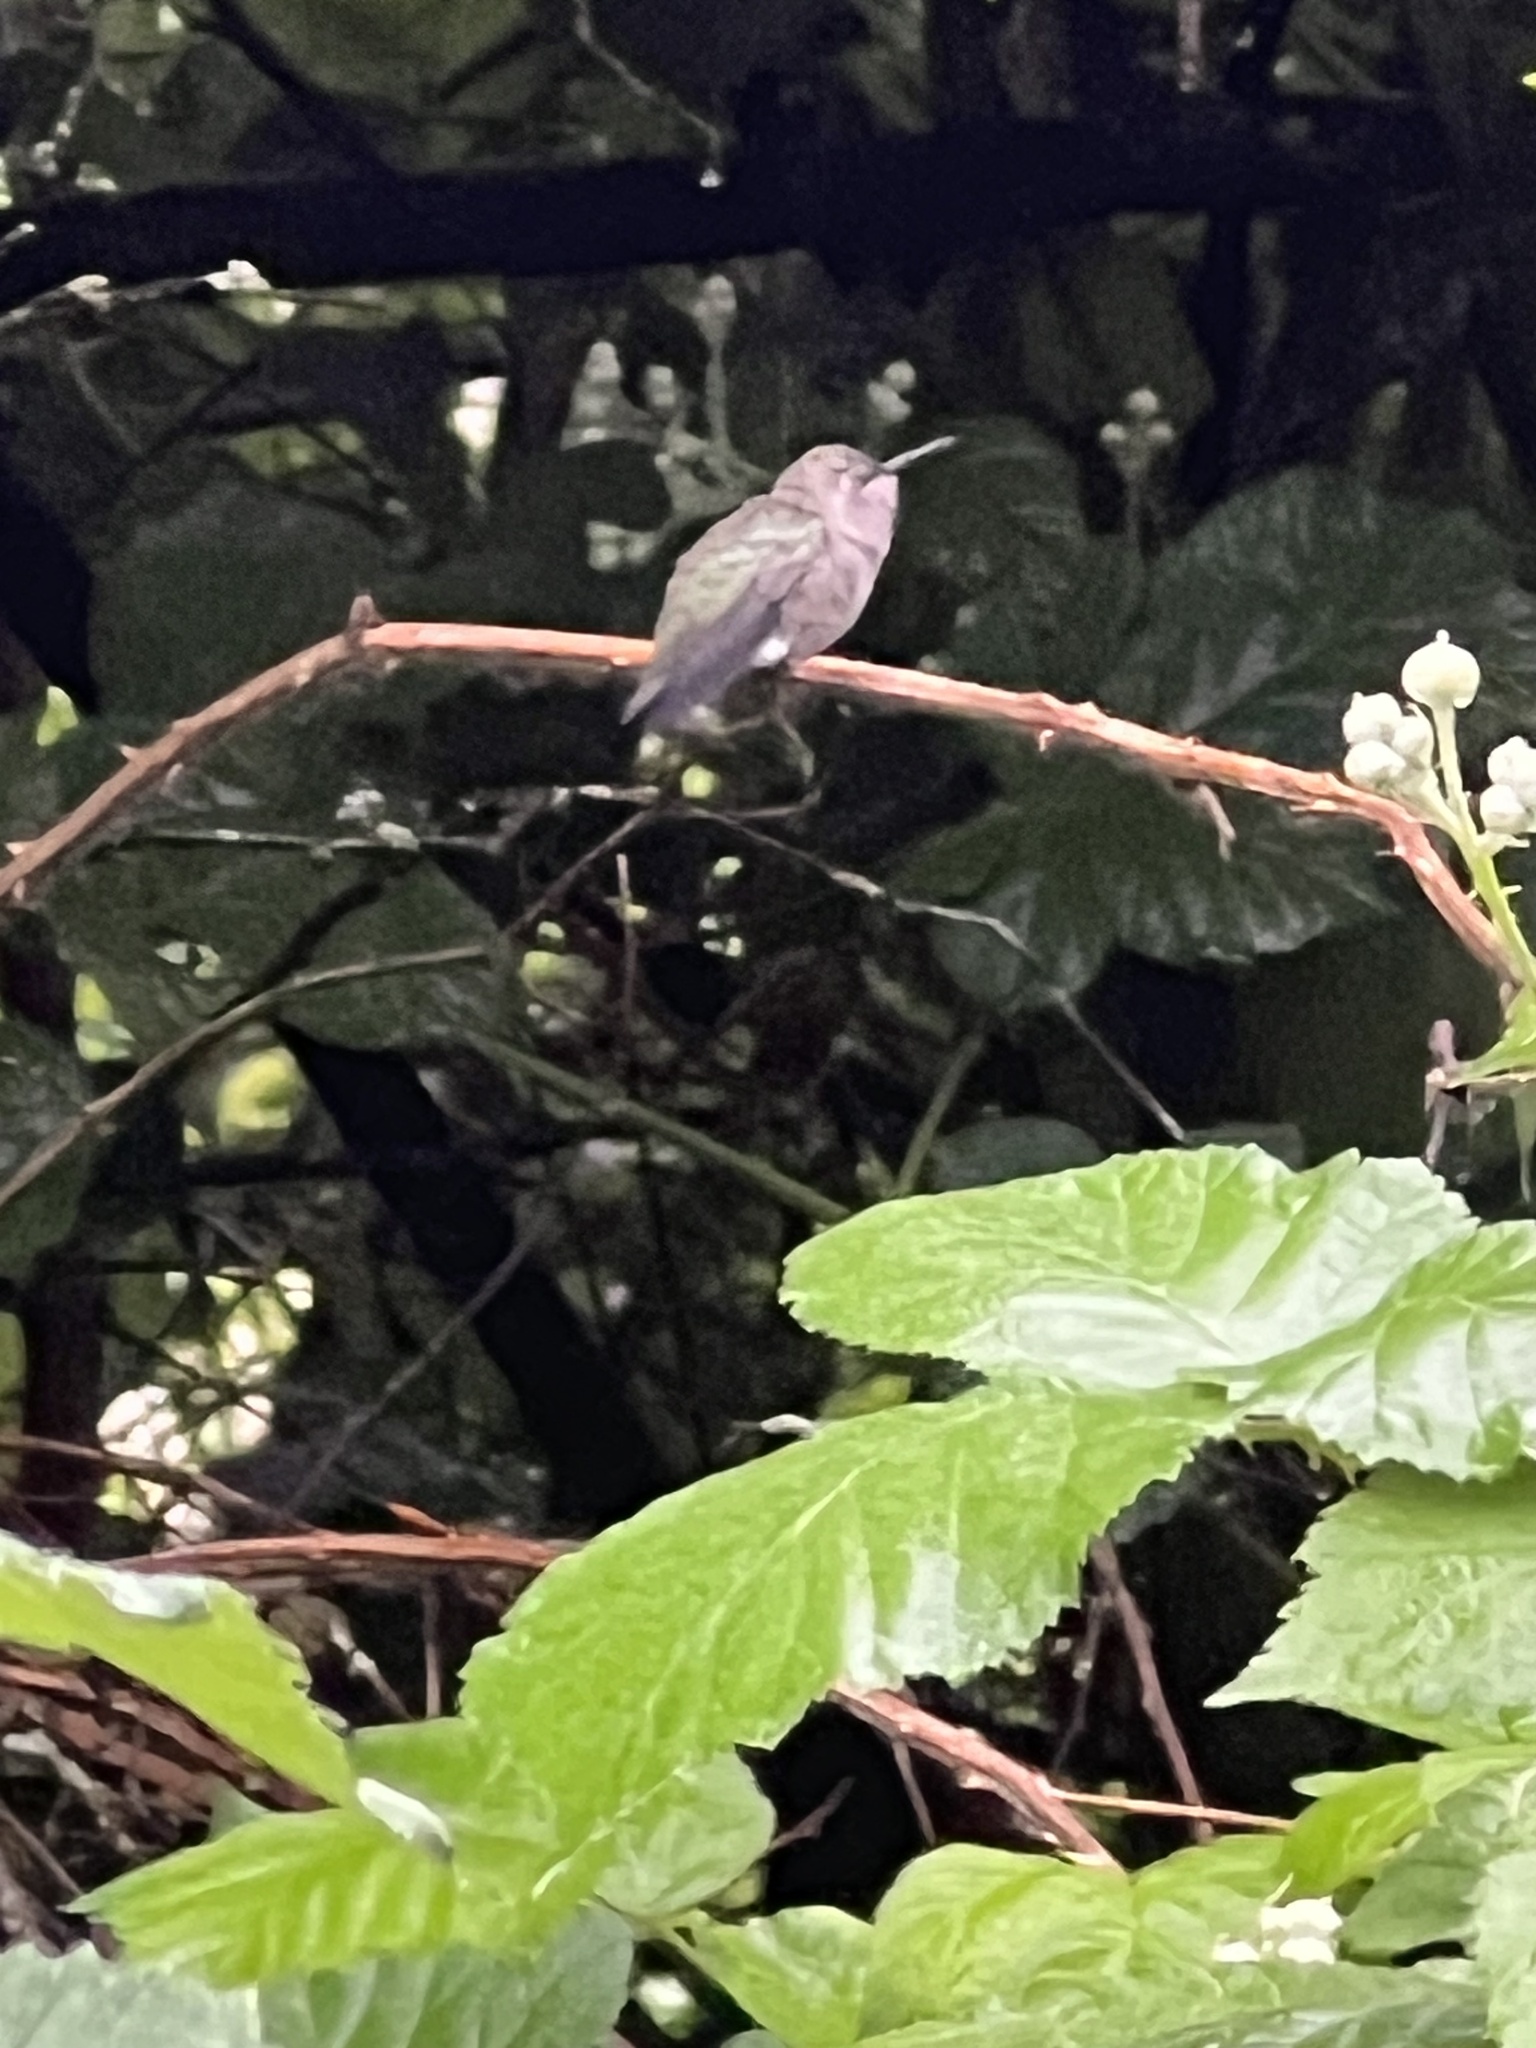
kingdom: Animalia
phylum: Chordata
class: Aves
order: Apodiformes
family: Trochilidae
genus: Calypte
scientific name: Calypte anna
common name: Anna's hummingbird
